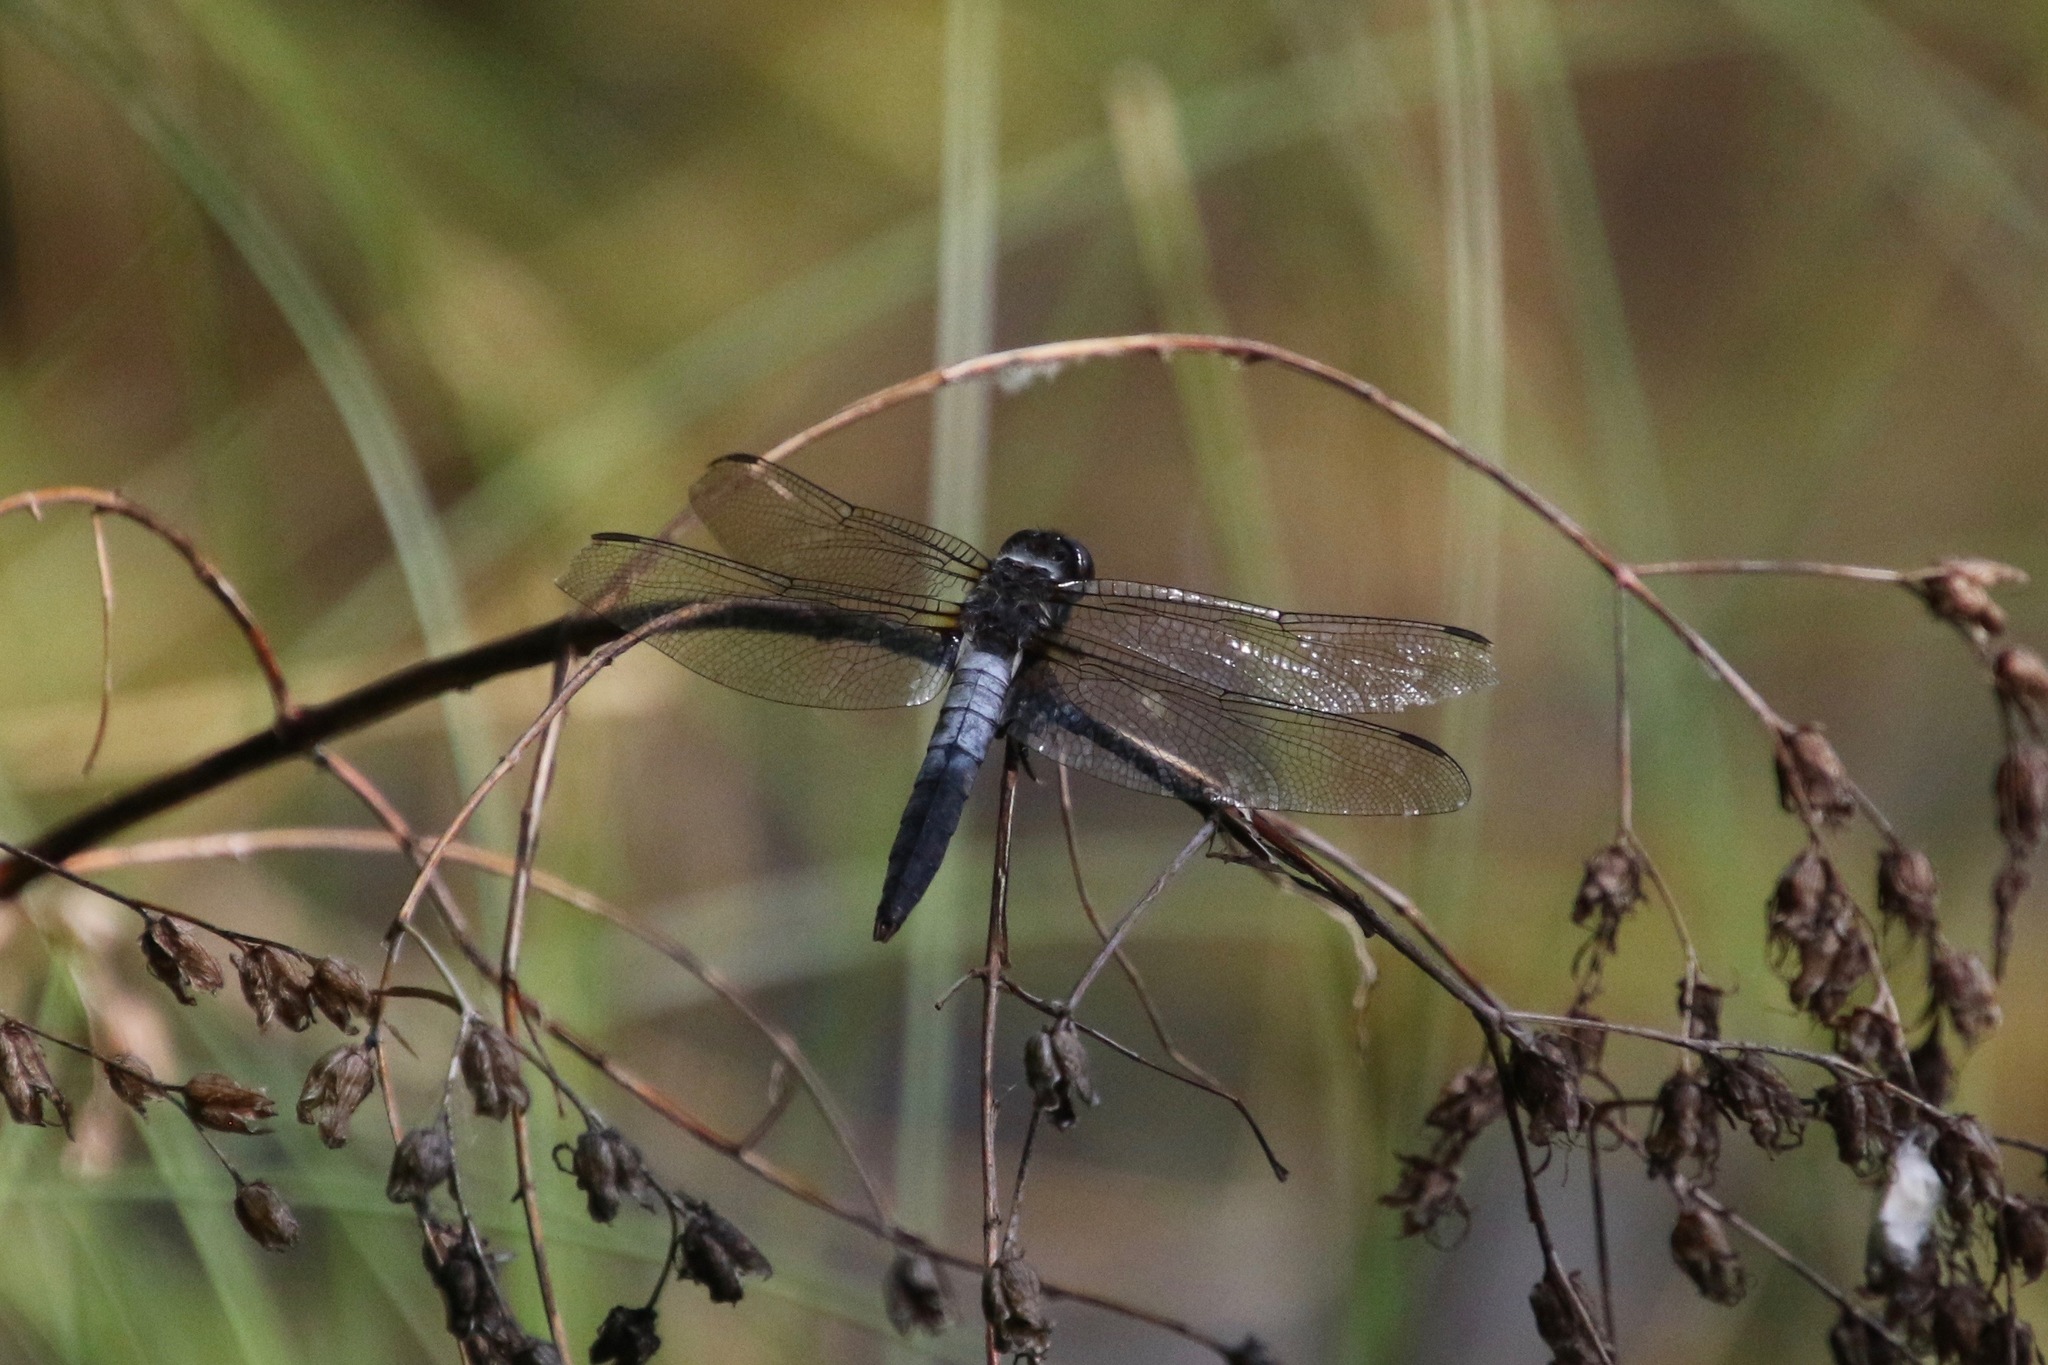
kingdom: Animalia
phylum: Arthropoda
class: Insecta
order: Odonata
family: Libellulidae
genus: Ladona
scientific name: Ladona julia
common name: Chalk-fronted corporal
